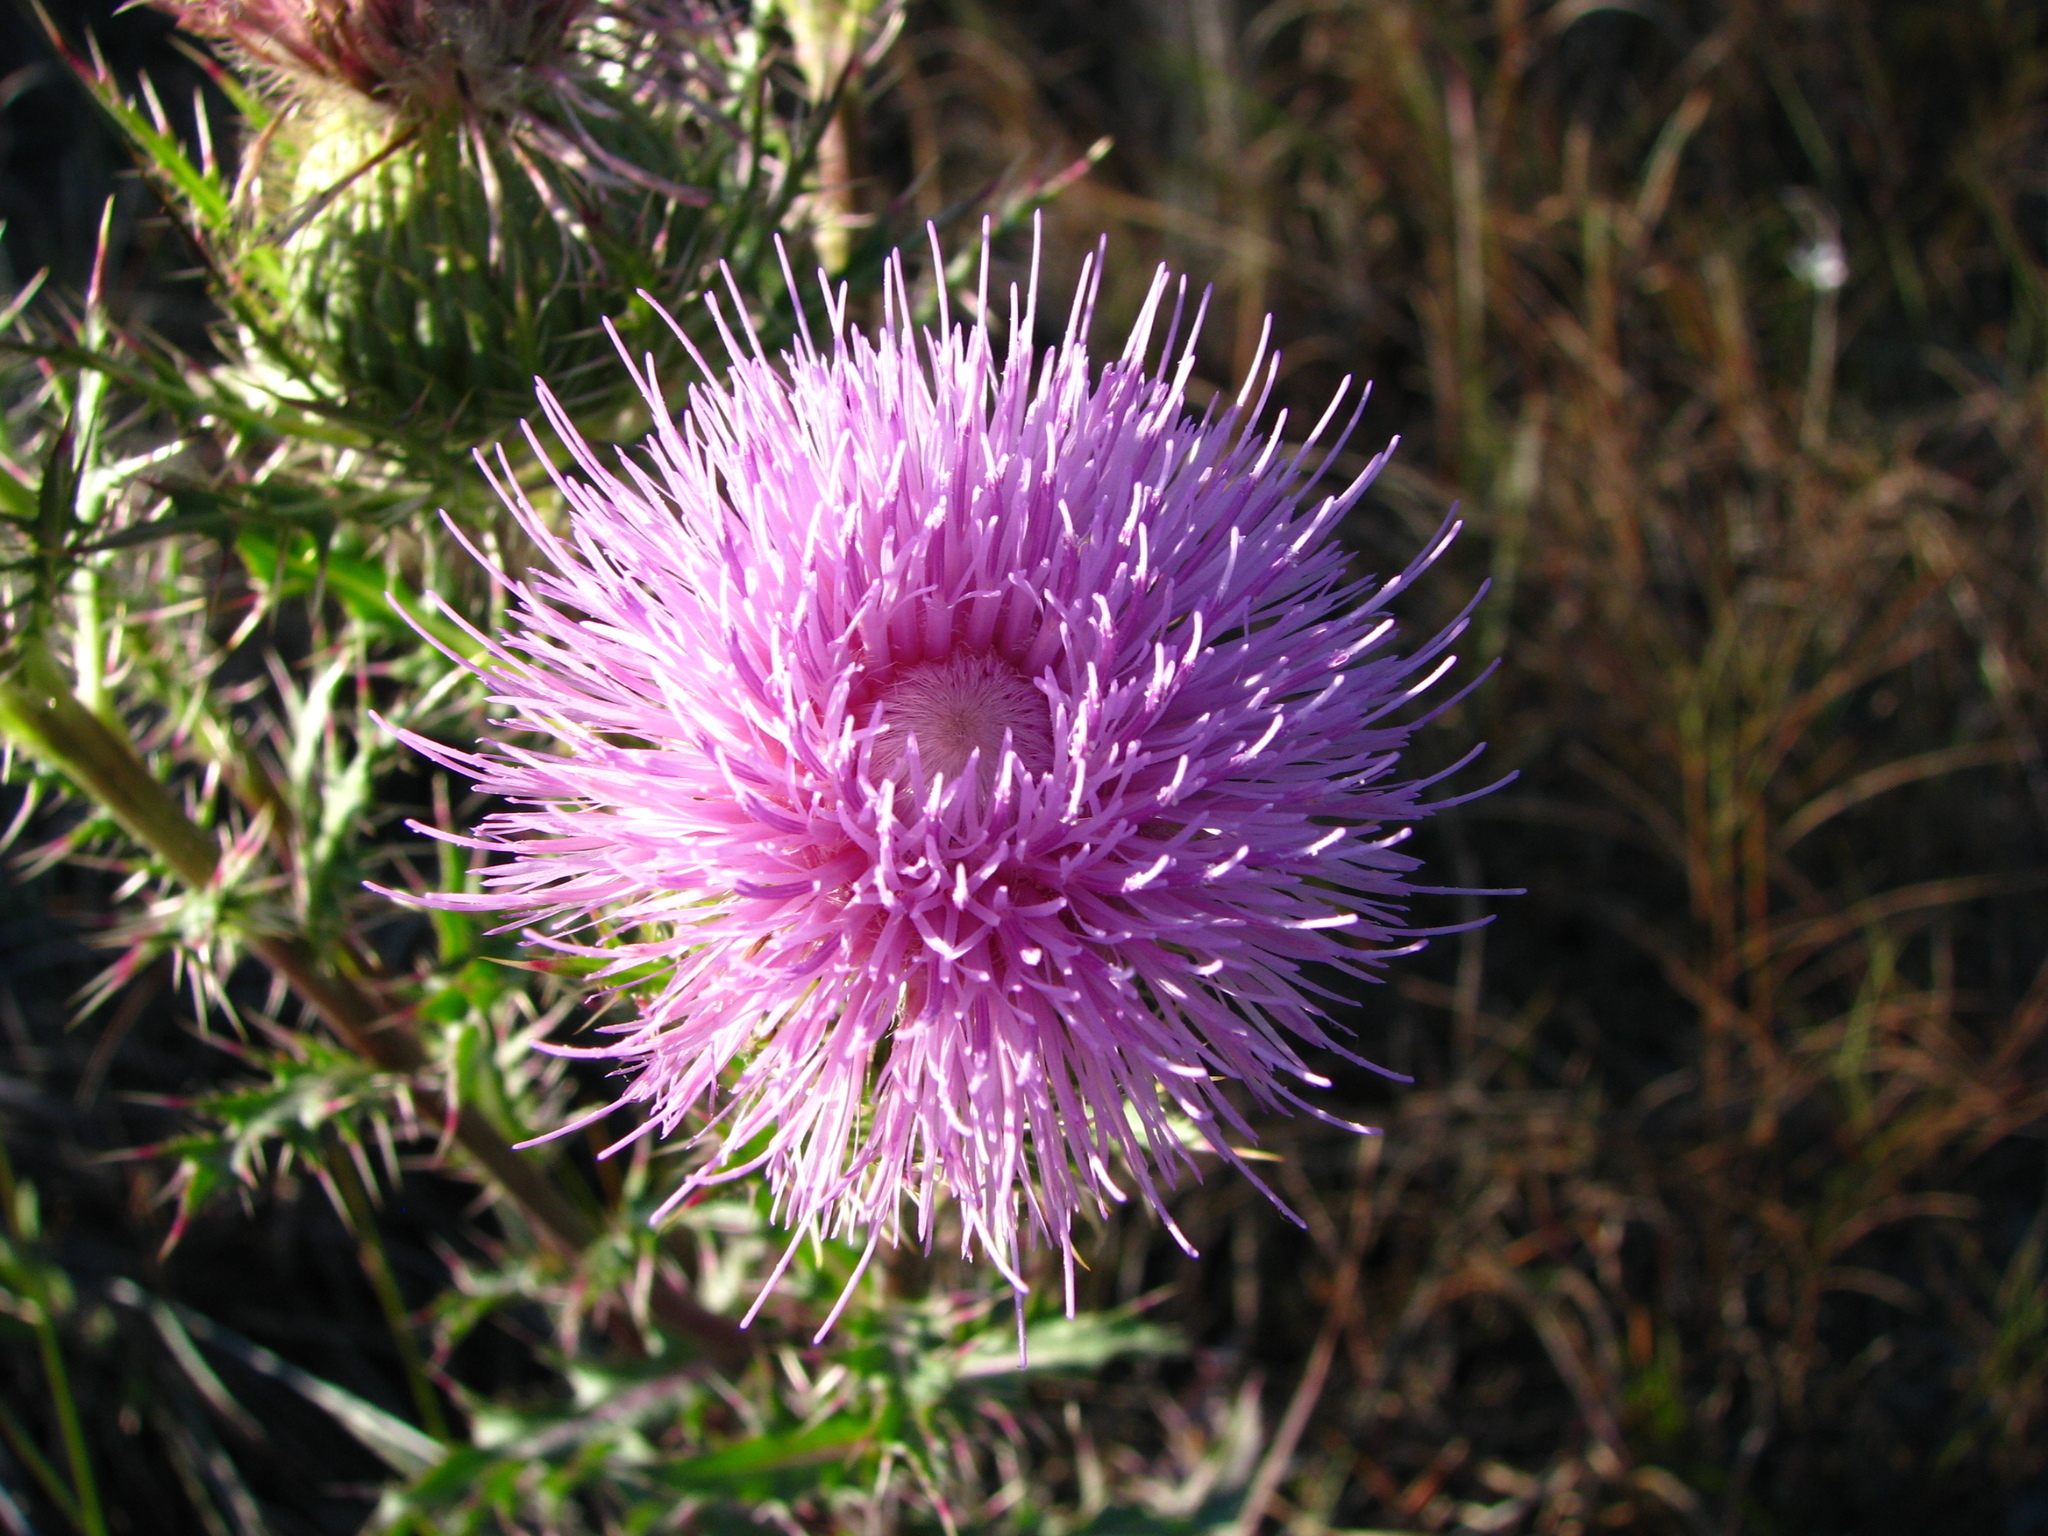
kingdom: Plantae
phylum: Tracheophyta
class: Magnoliopsida
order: Asterales
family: Asteraceae
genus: Cirsium
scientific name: Cirsium horridulum
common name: Bristly thistle
